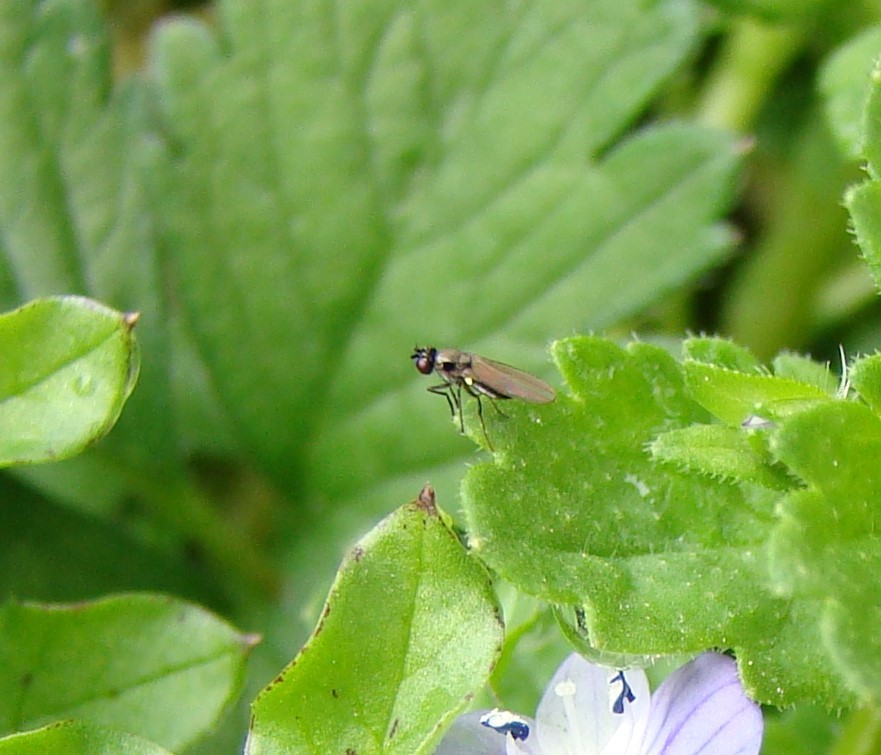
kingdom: Animalia
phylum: Arthropoda
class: Insecta
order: Diptera
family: Ephydridae
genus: Hydrellia
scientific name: Hydrellia tritici
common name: Shore fly
